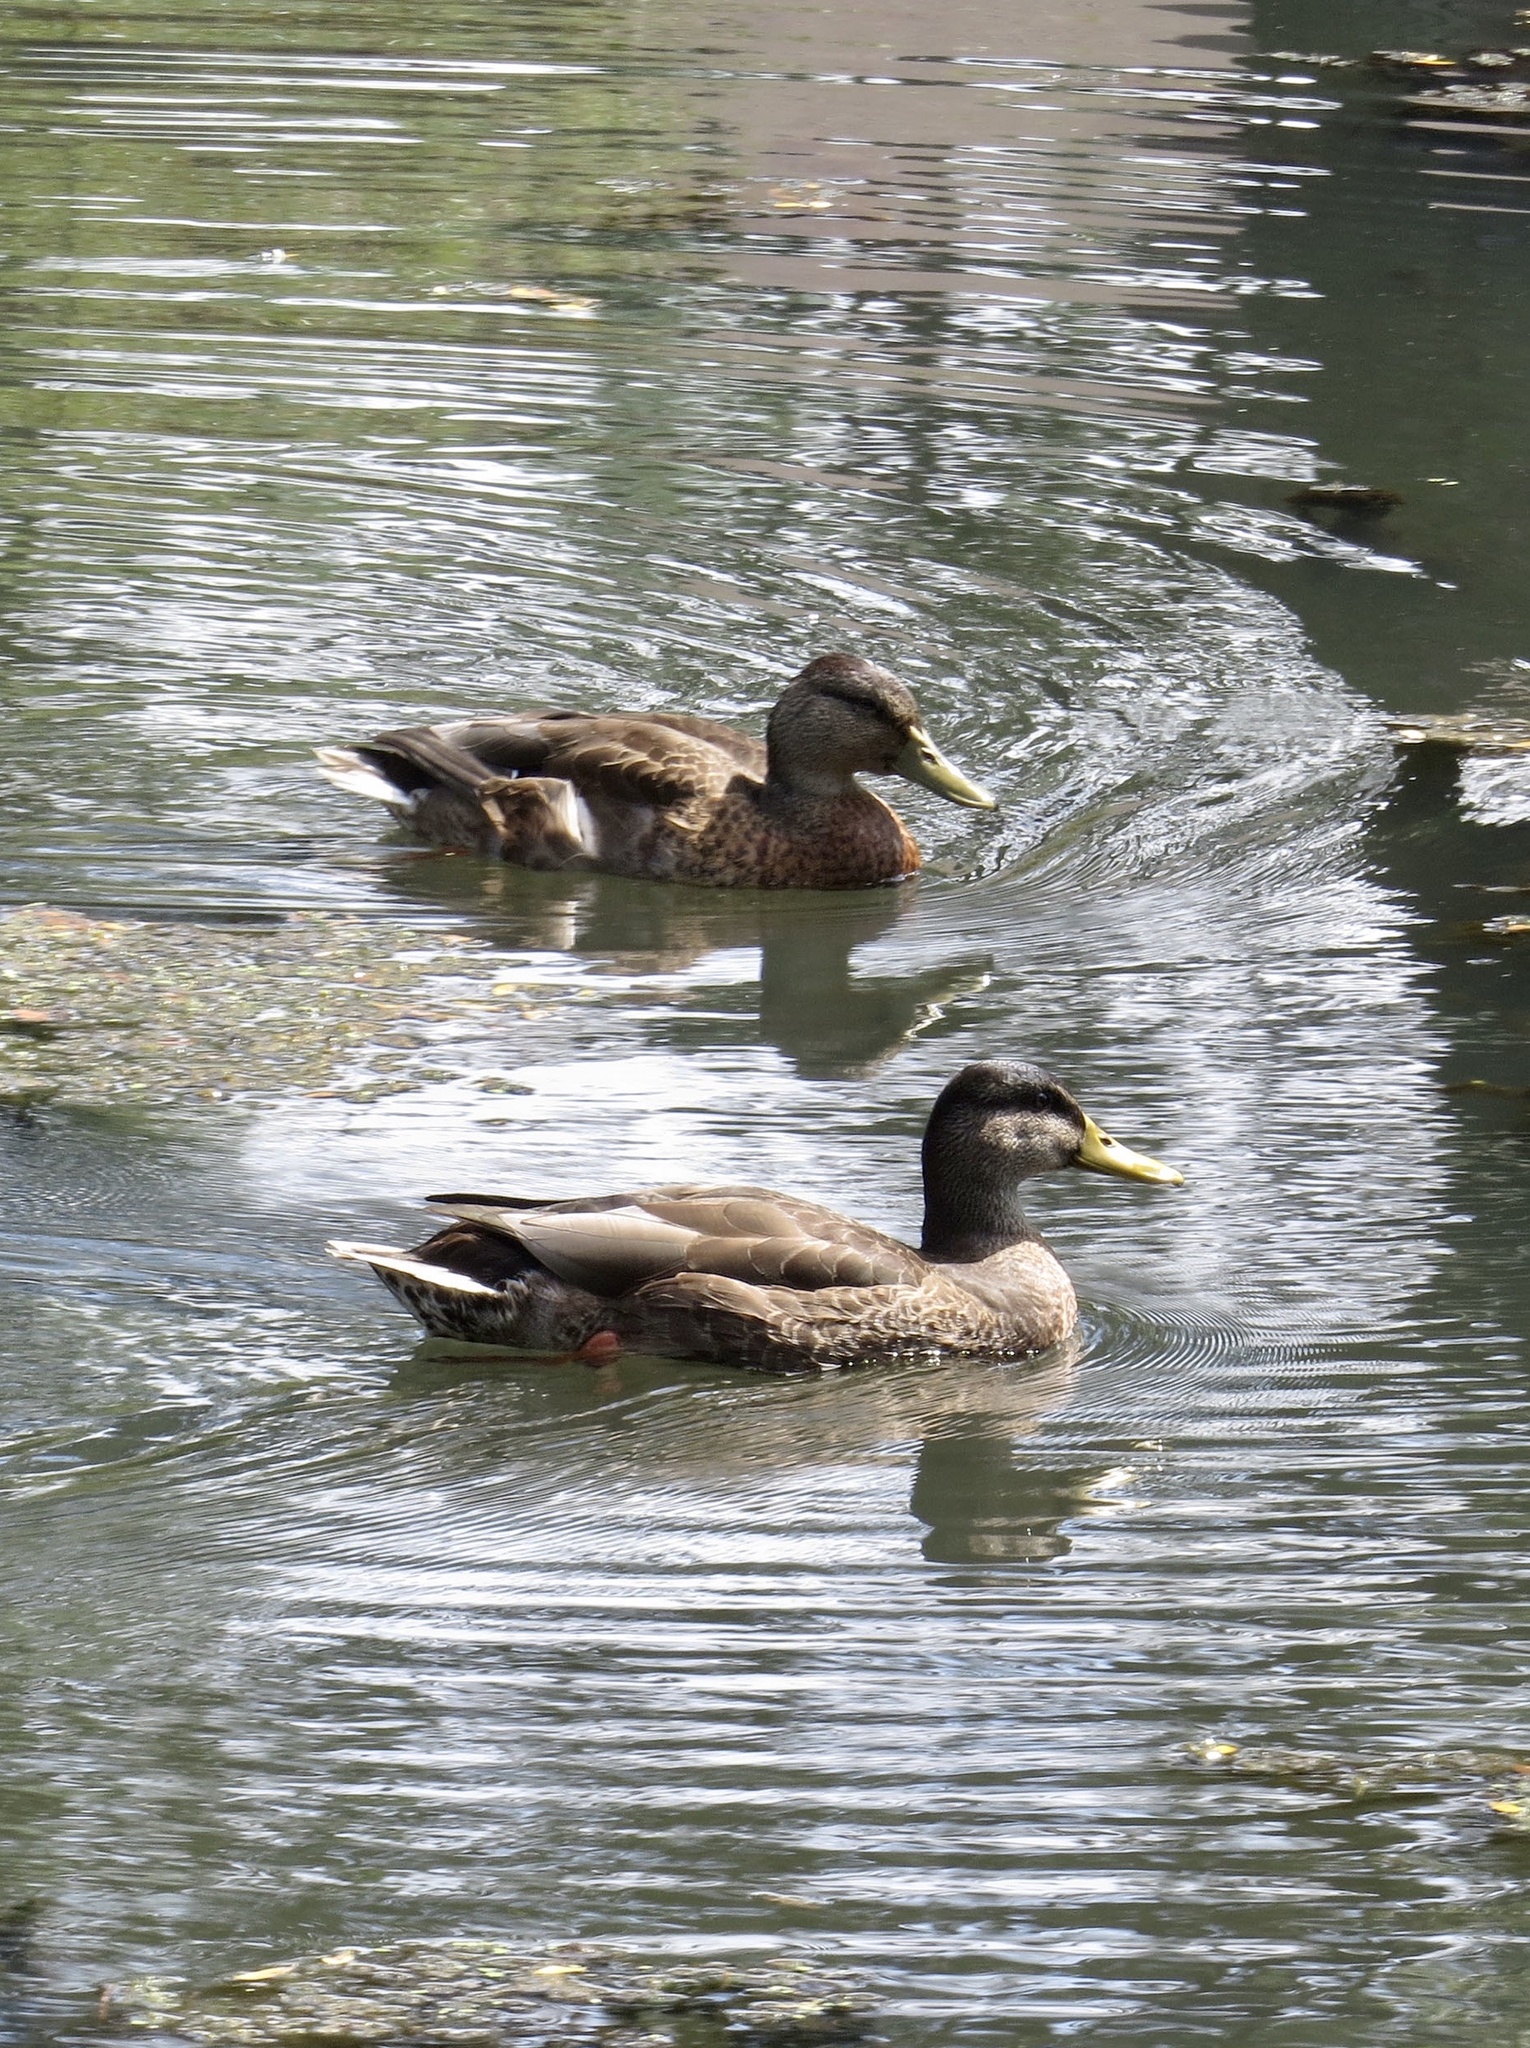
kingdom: Animalia
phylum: Chordata
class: Aves
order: Anseriformes
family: Anatidae
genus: Anas
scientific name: Anas platyrhynchos
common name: Mallard
